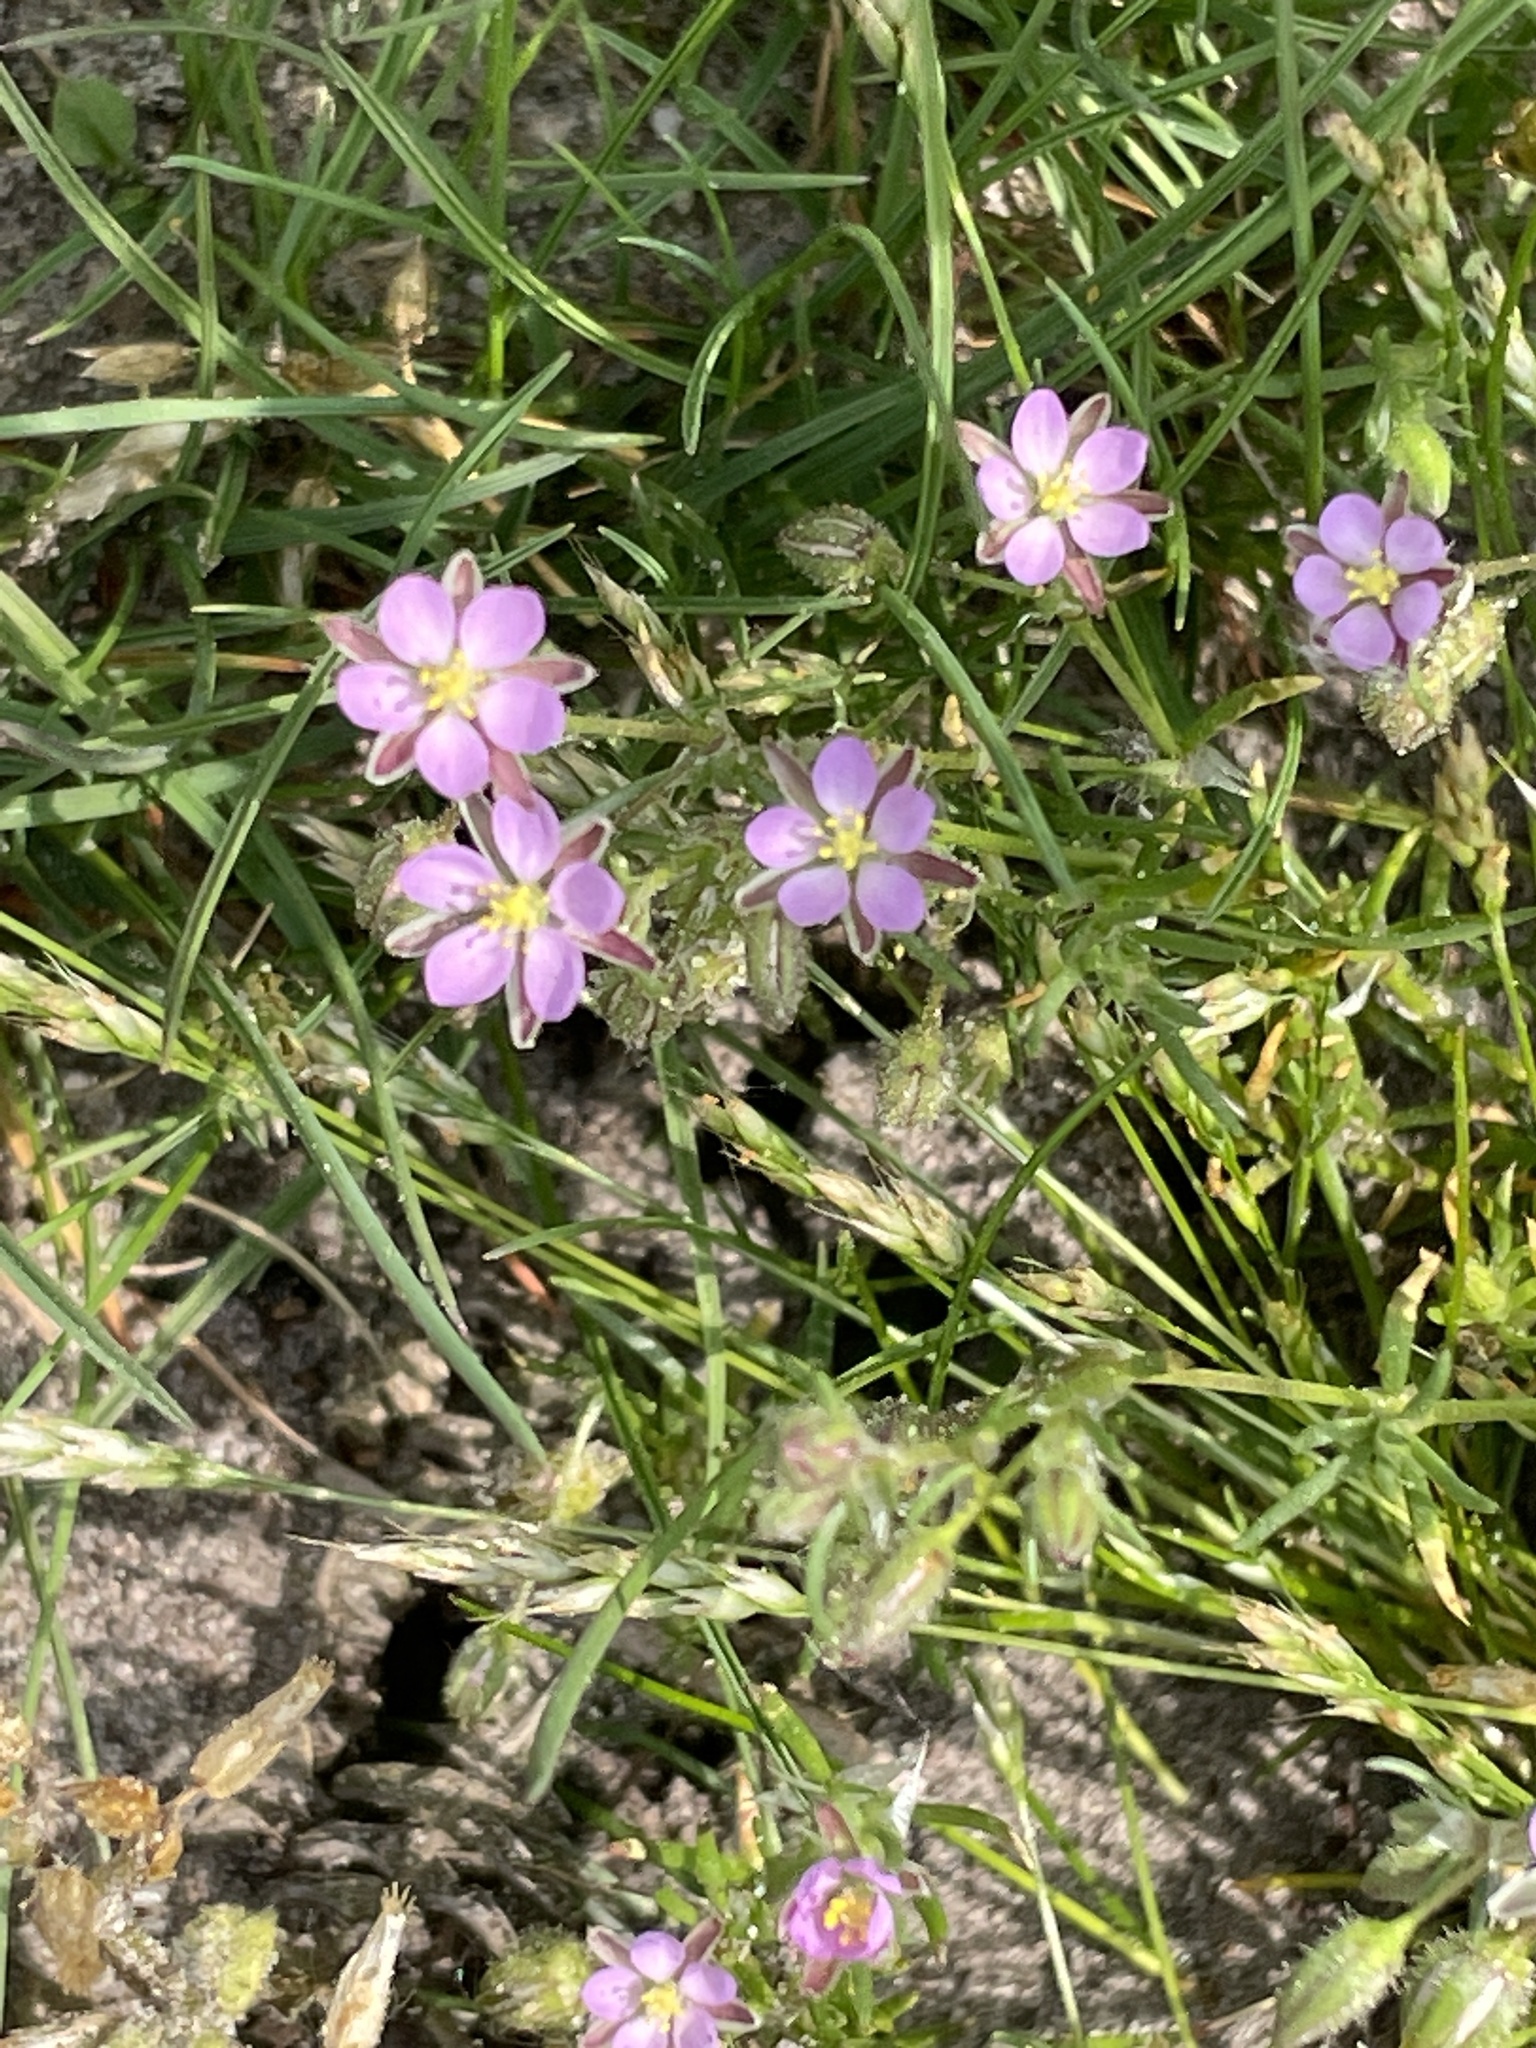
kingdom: Plantae
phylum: Tracheophyta
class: Magnoliopsida
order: Caryophyllales
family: Caryophyllaceae
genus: Spergularia
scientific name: Spergularia rubra
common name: Red sand-spurrey
